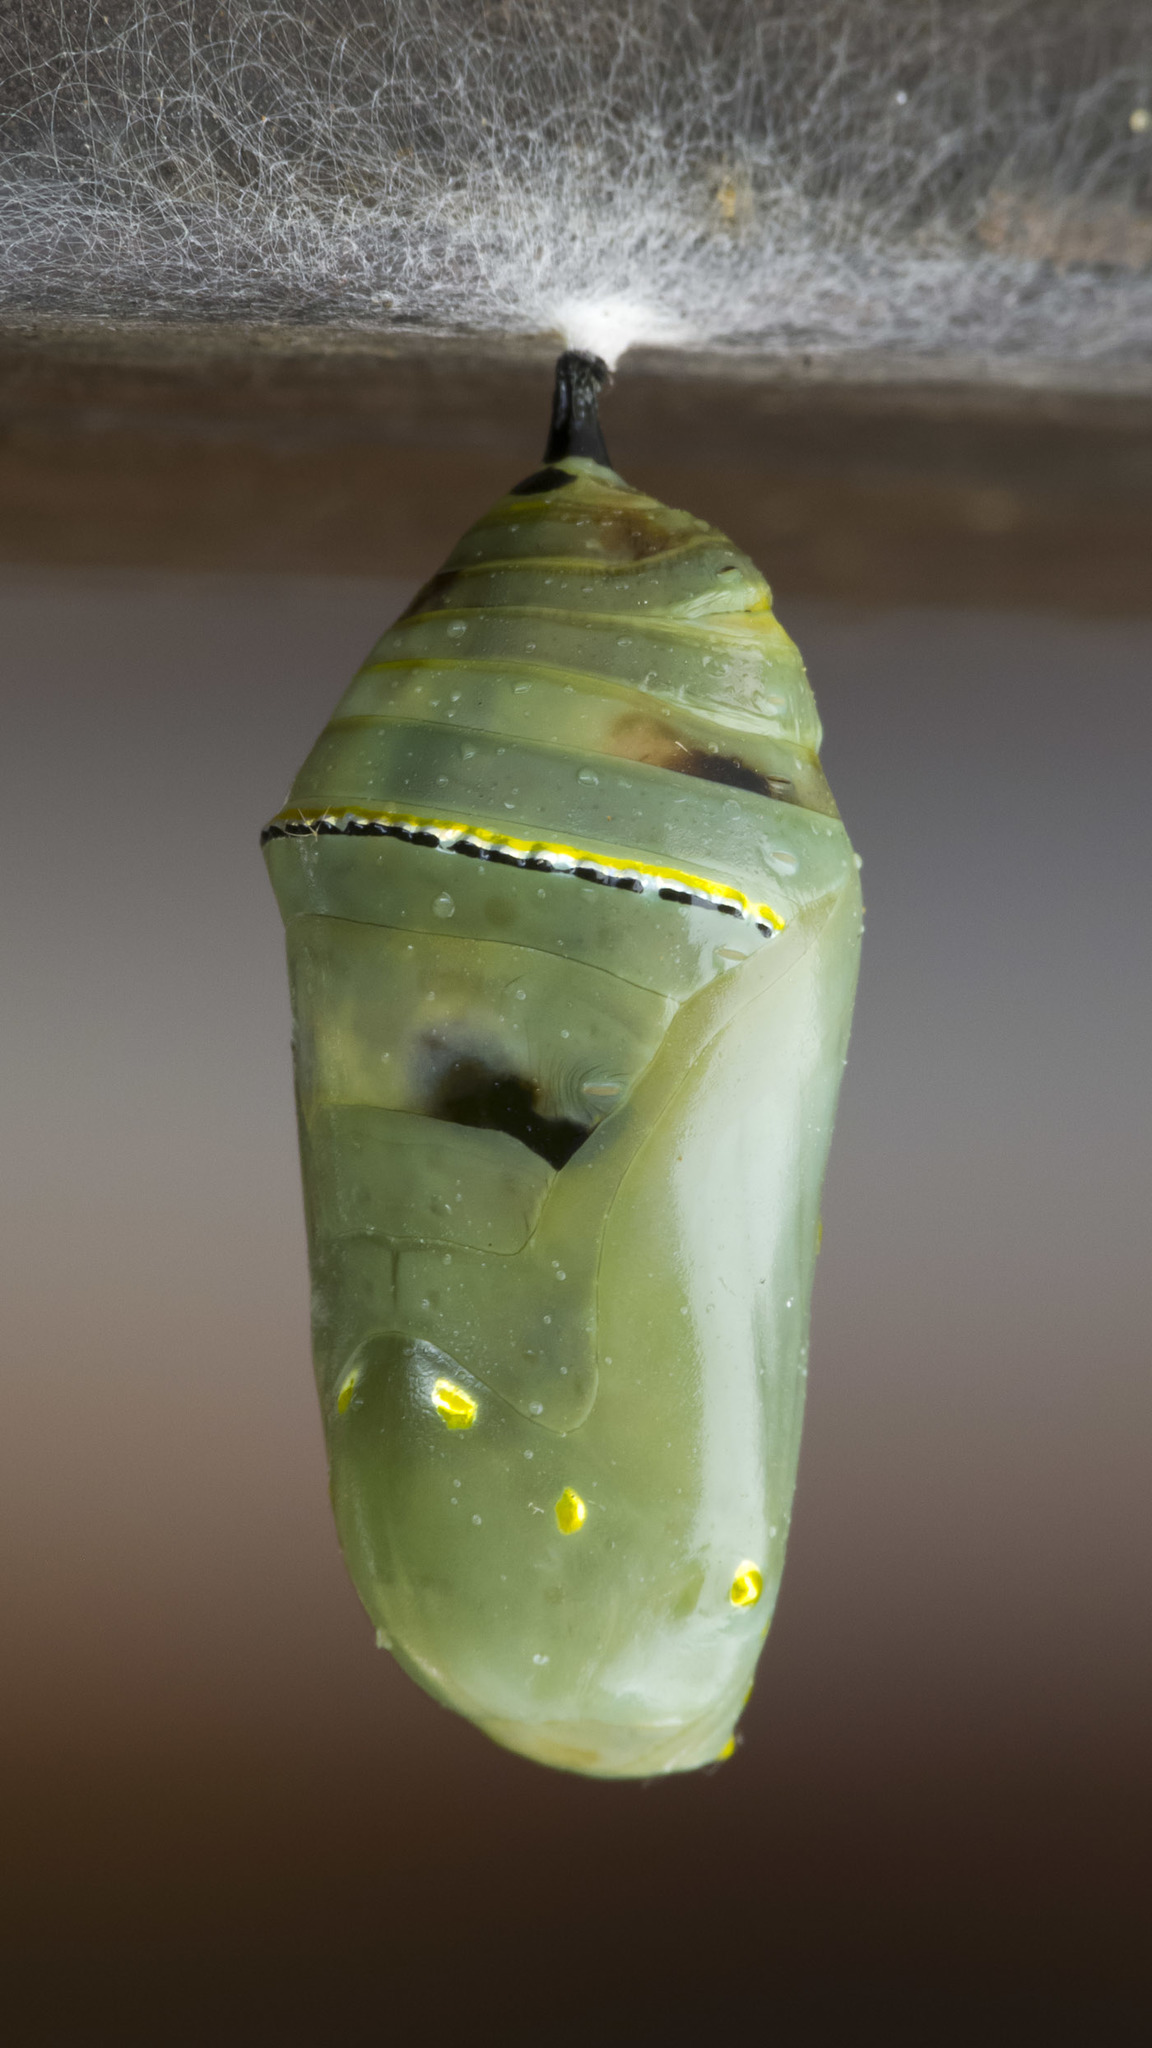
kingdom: Animalia
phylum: Arthropoda
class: Insecta
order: Lepidoptera
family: Nymphalidae
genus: Danaus
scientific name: Danaus plexippus
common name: Monarch
